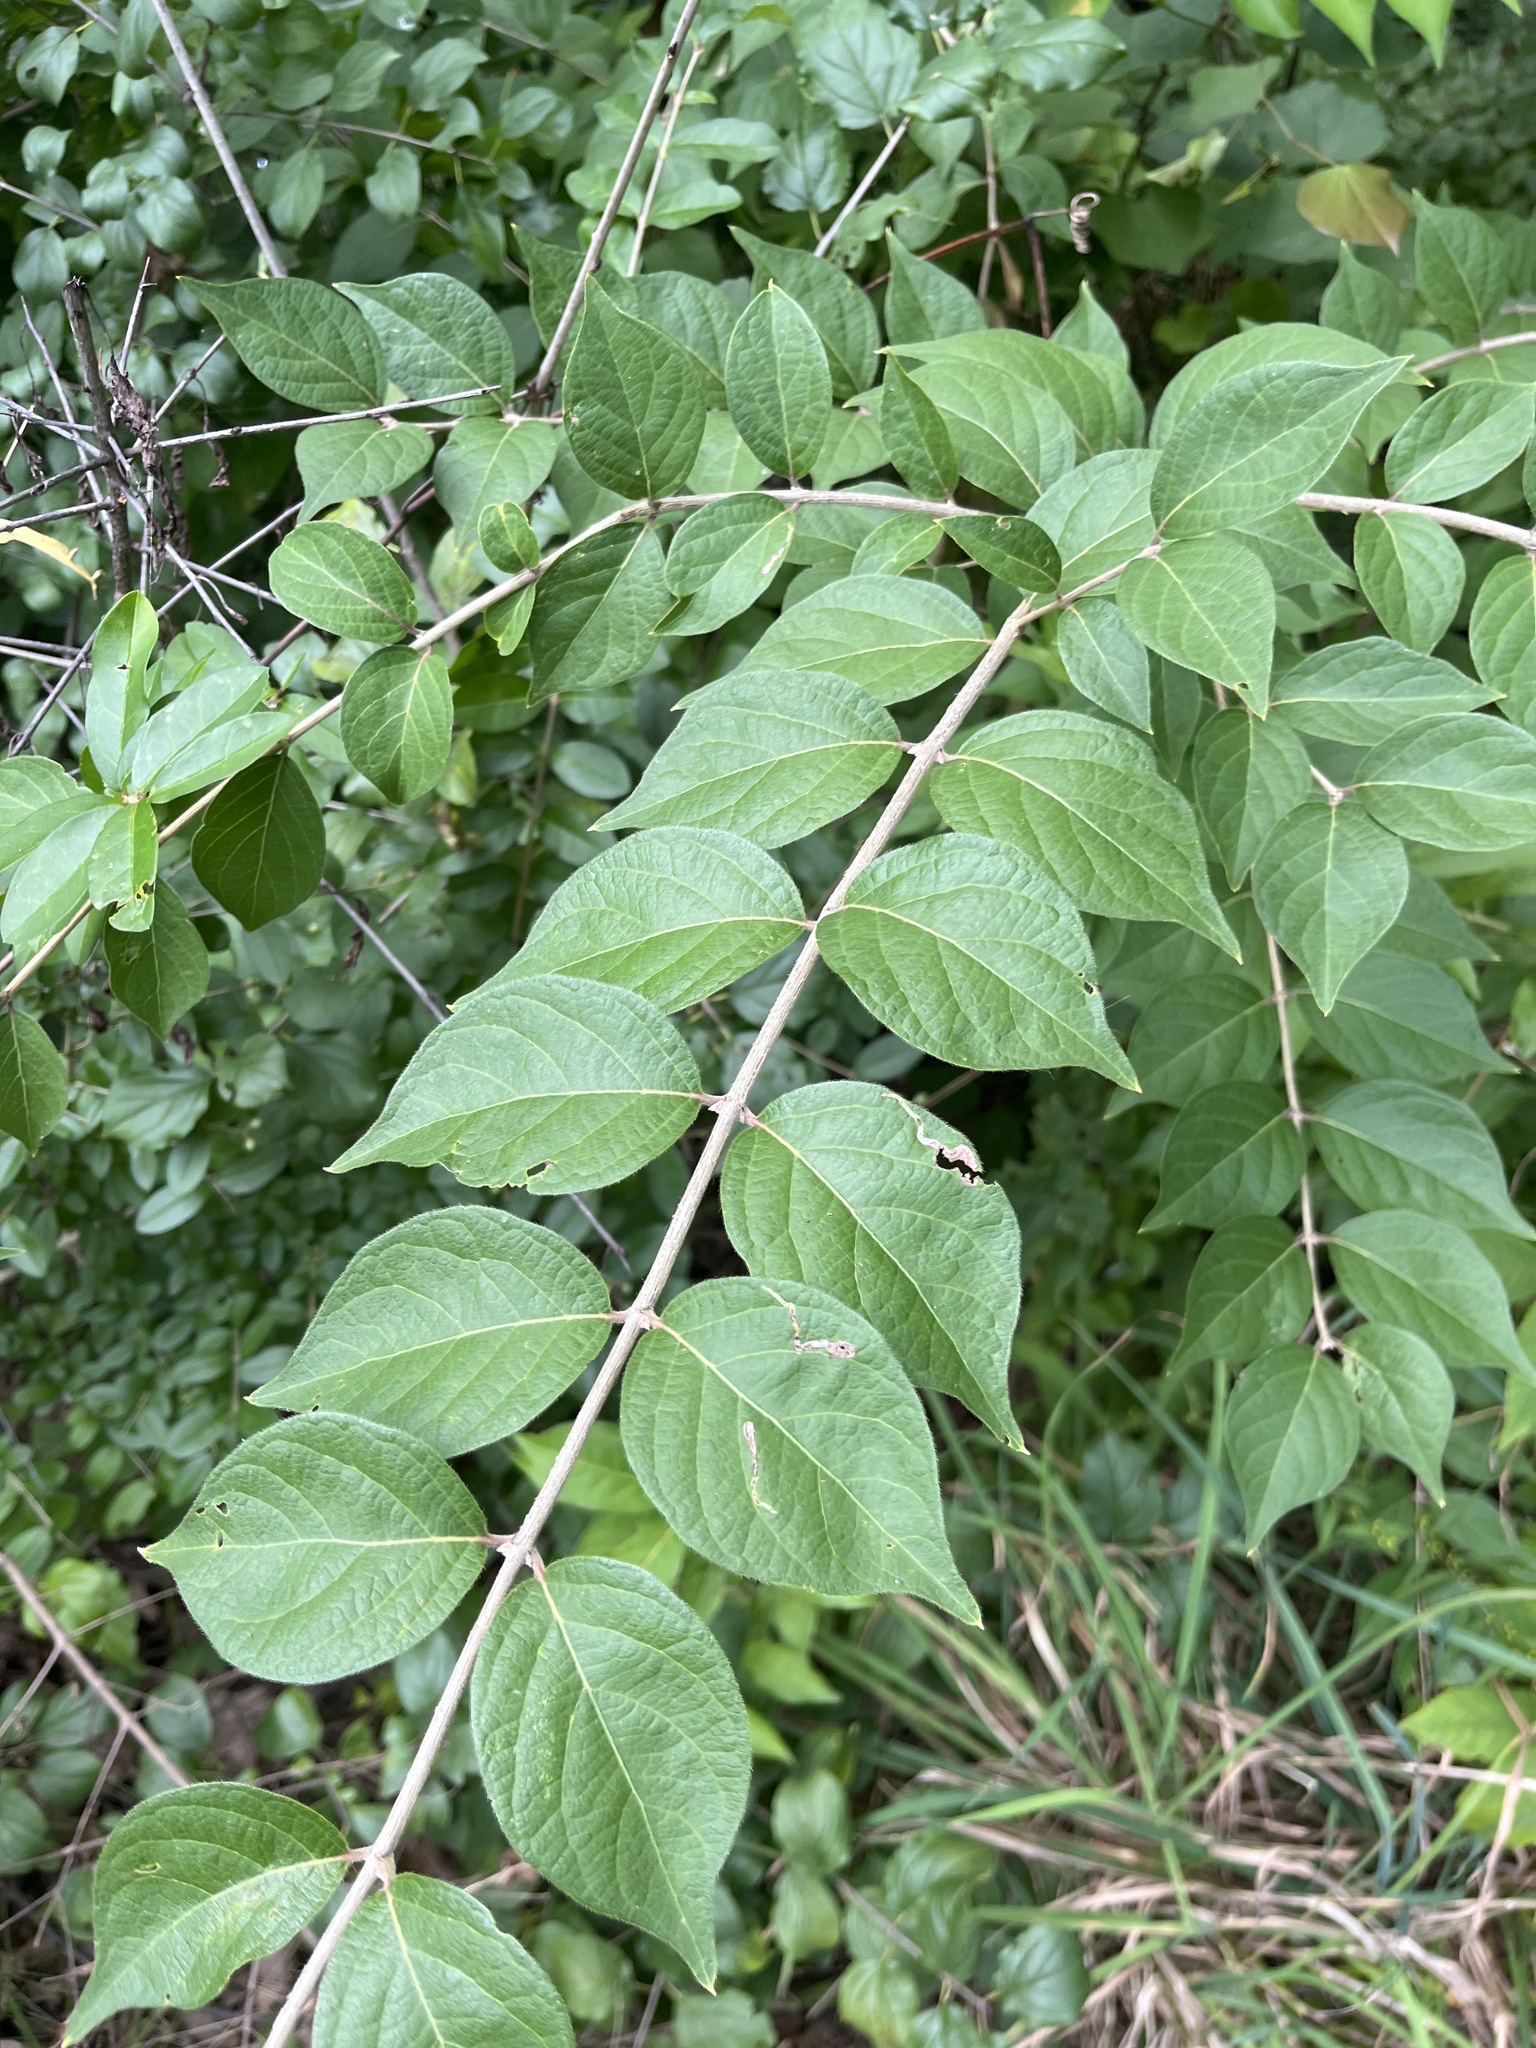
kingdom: Plantae
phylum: Tracheophyta
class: Magnoliopsida
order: Dipsacales
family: Caprifoliaceae
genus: Lonicera
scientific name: Lonicera maackii
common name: Amur honeysuckle
